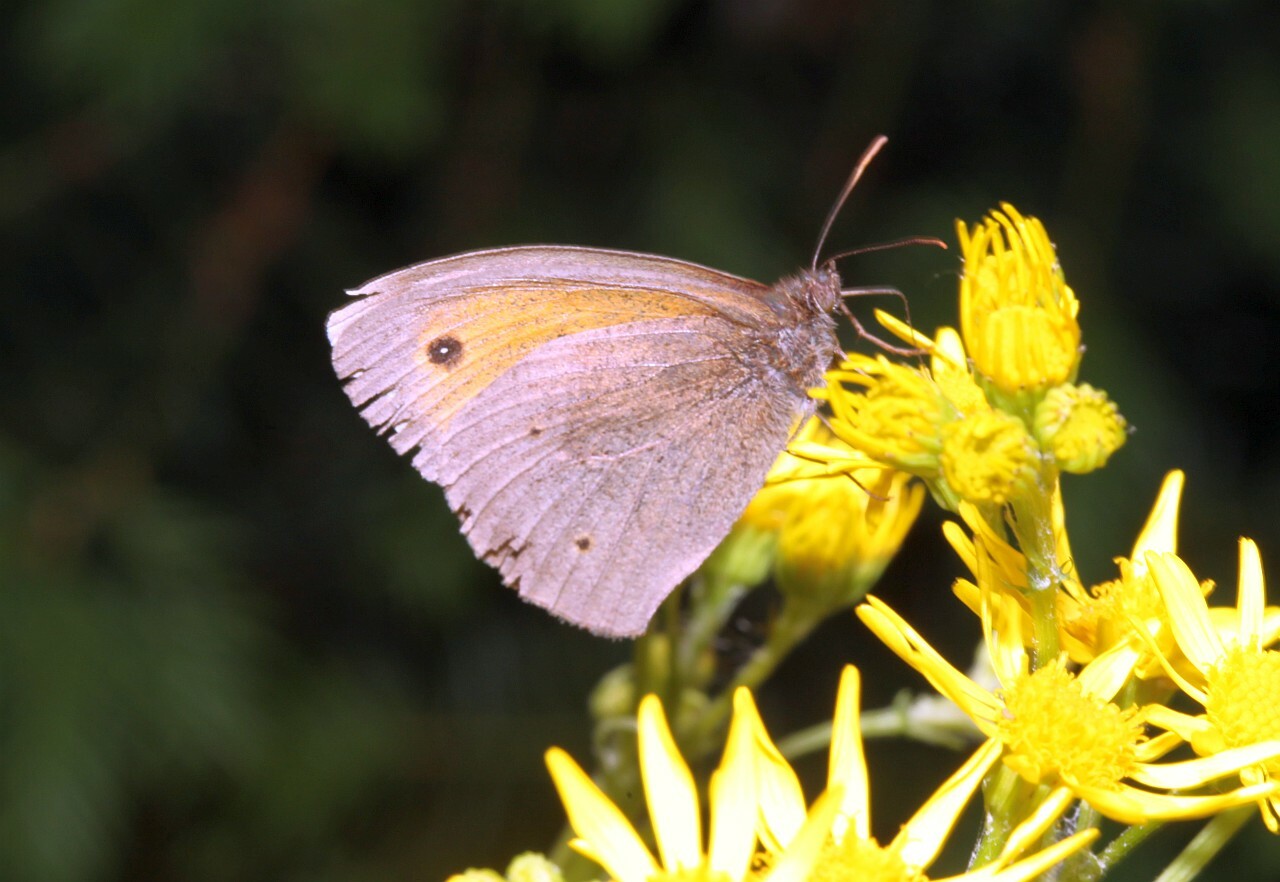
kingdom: Animalia
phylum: Arthropoda
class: Insecta
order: Lepidoptera
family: Nymphalidae
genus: Maniola
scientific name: Maniola jurtina
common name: Meadow brown
